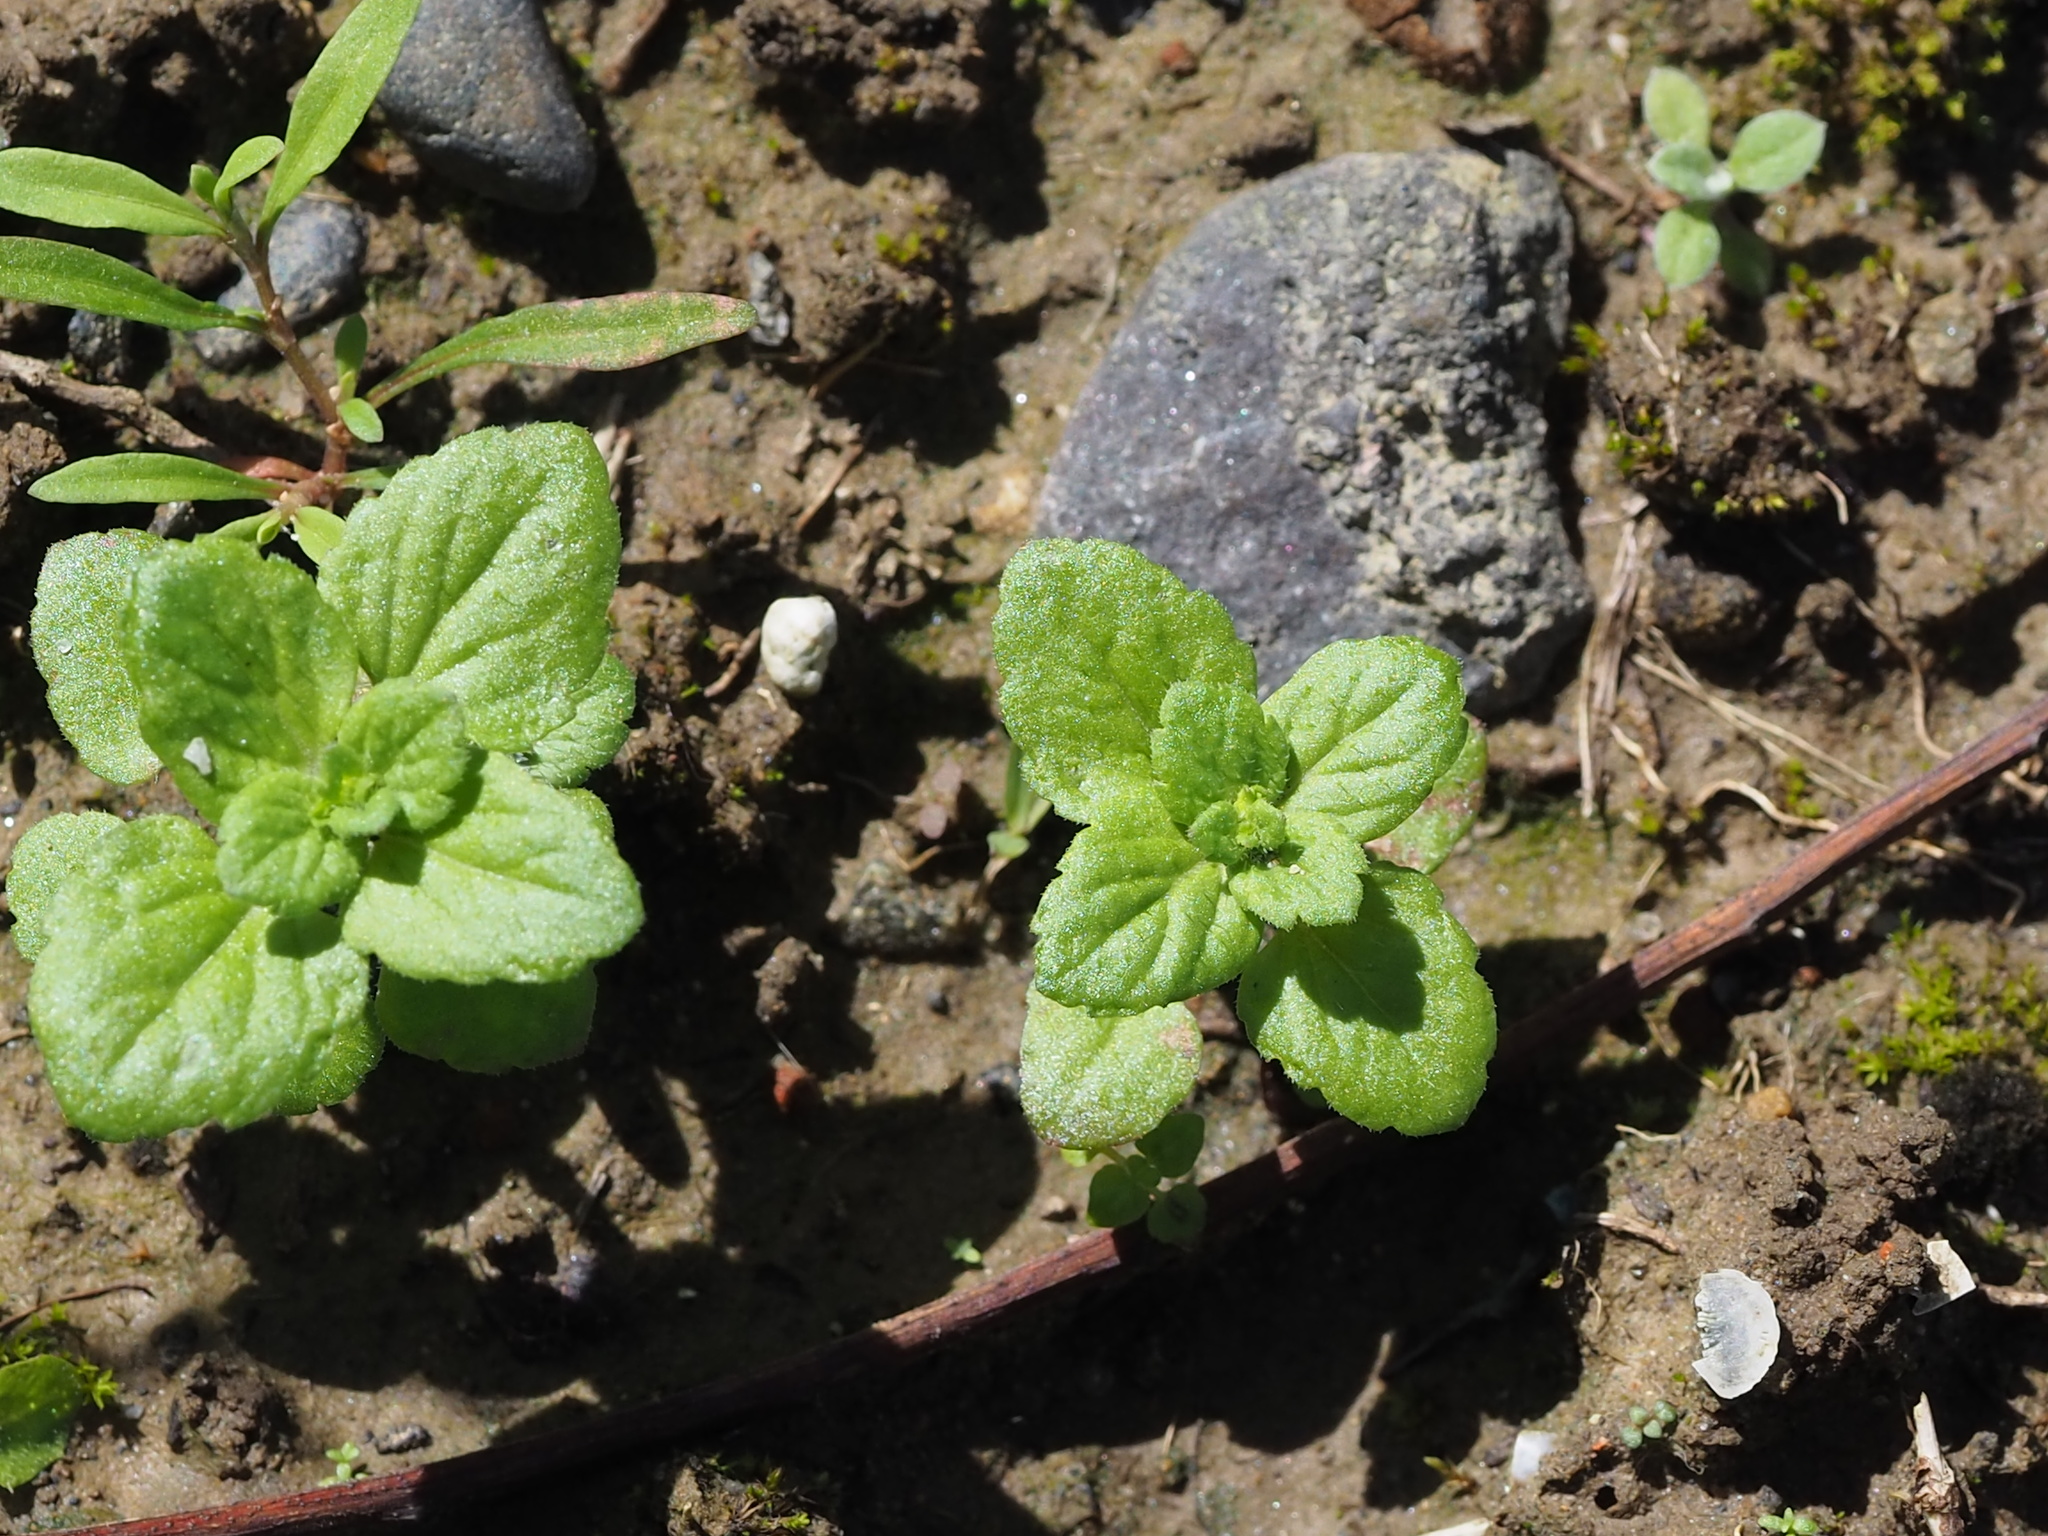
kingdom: Plantae
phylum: Tracheophyta
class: Magnoliopsida
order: Lamiales
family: Plantaginaceae
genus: Veronica
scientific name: Veronica persica
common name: Common field-speedwell
